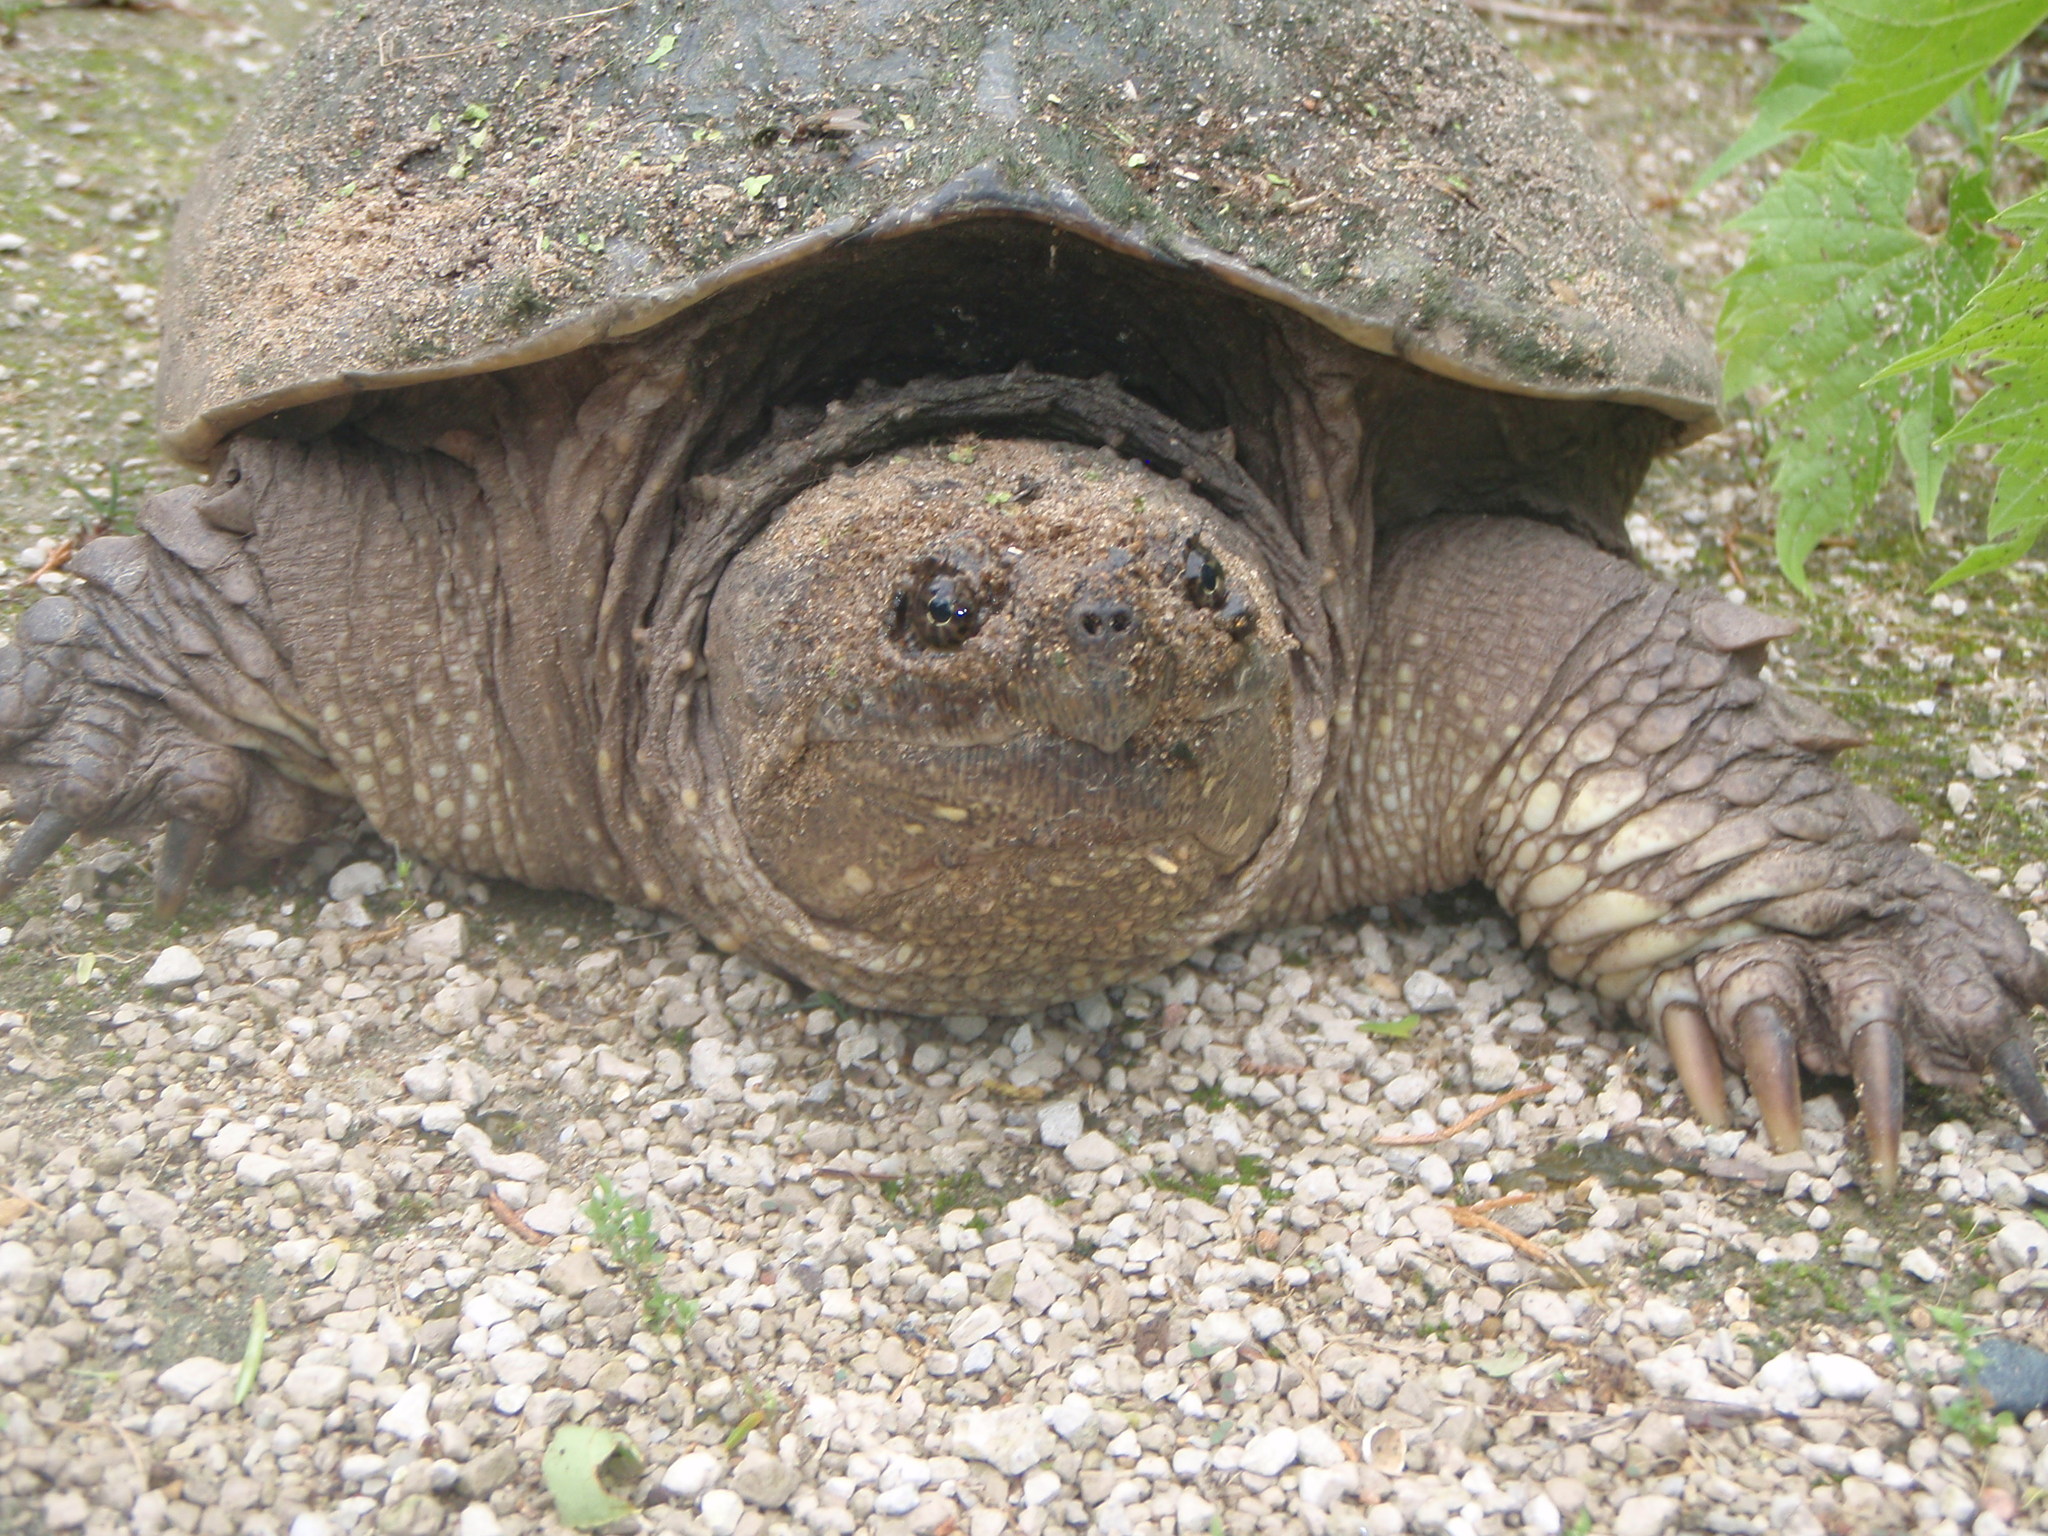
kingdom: Animalia
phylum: Chordata
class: Testudines
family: Chelydridae
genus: Chelydra
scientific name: Chelydra serpentina
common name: Common snapping turtle
